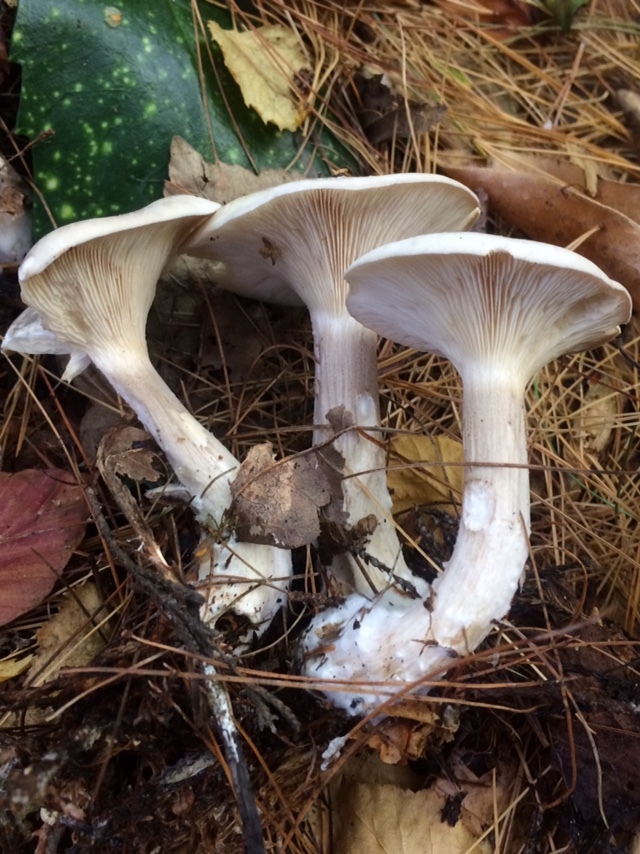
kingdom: Fungi
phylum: Basidiomycota
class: Agaricomycetes
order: Agaricales
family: Tricholomataceae
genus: Clitocybe
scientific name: Clitocybe nebularis
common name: Clouded agaric
